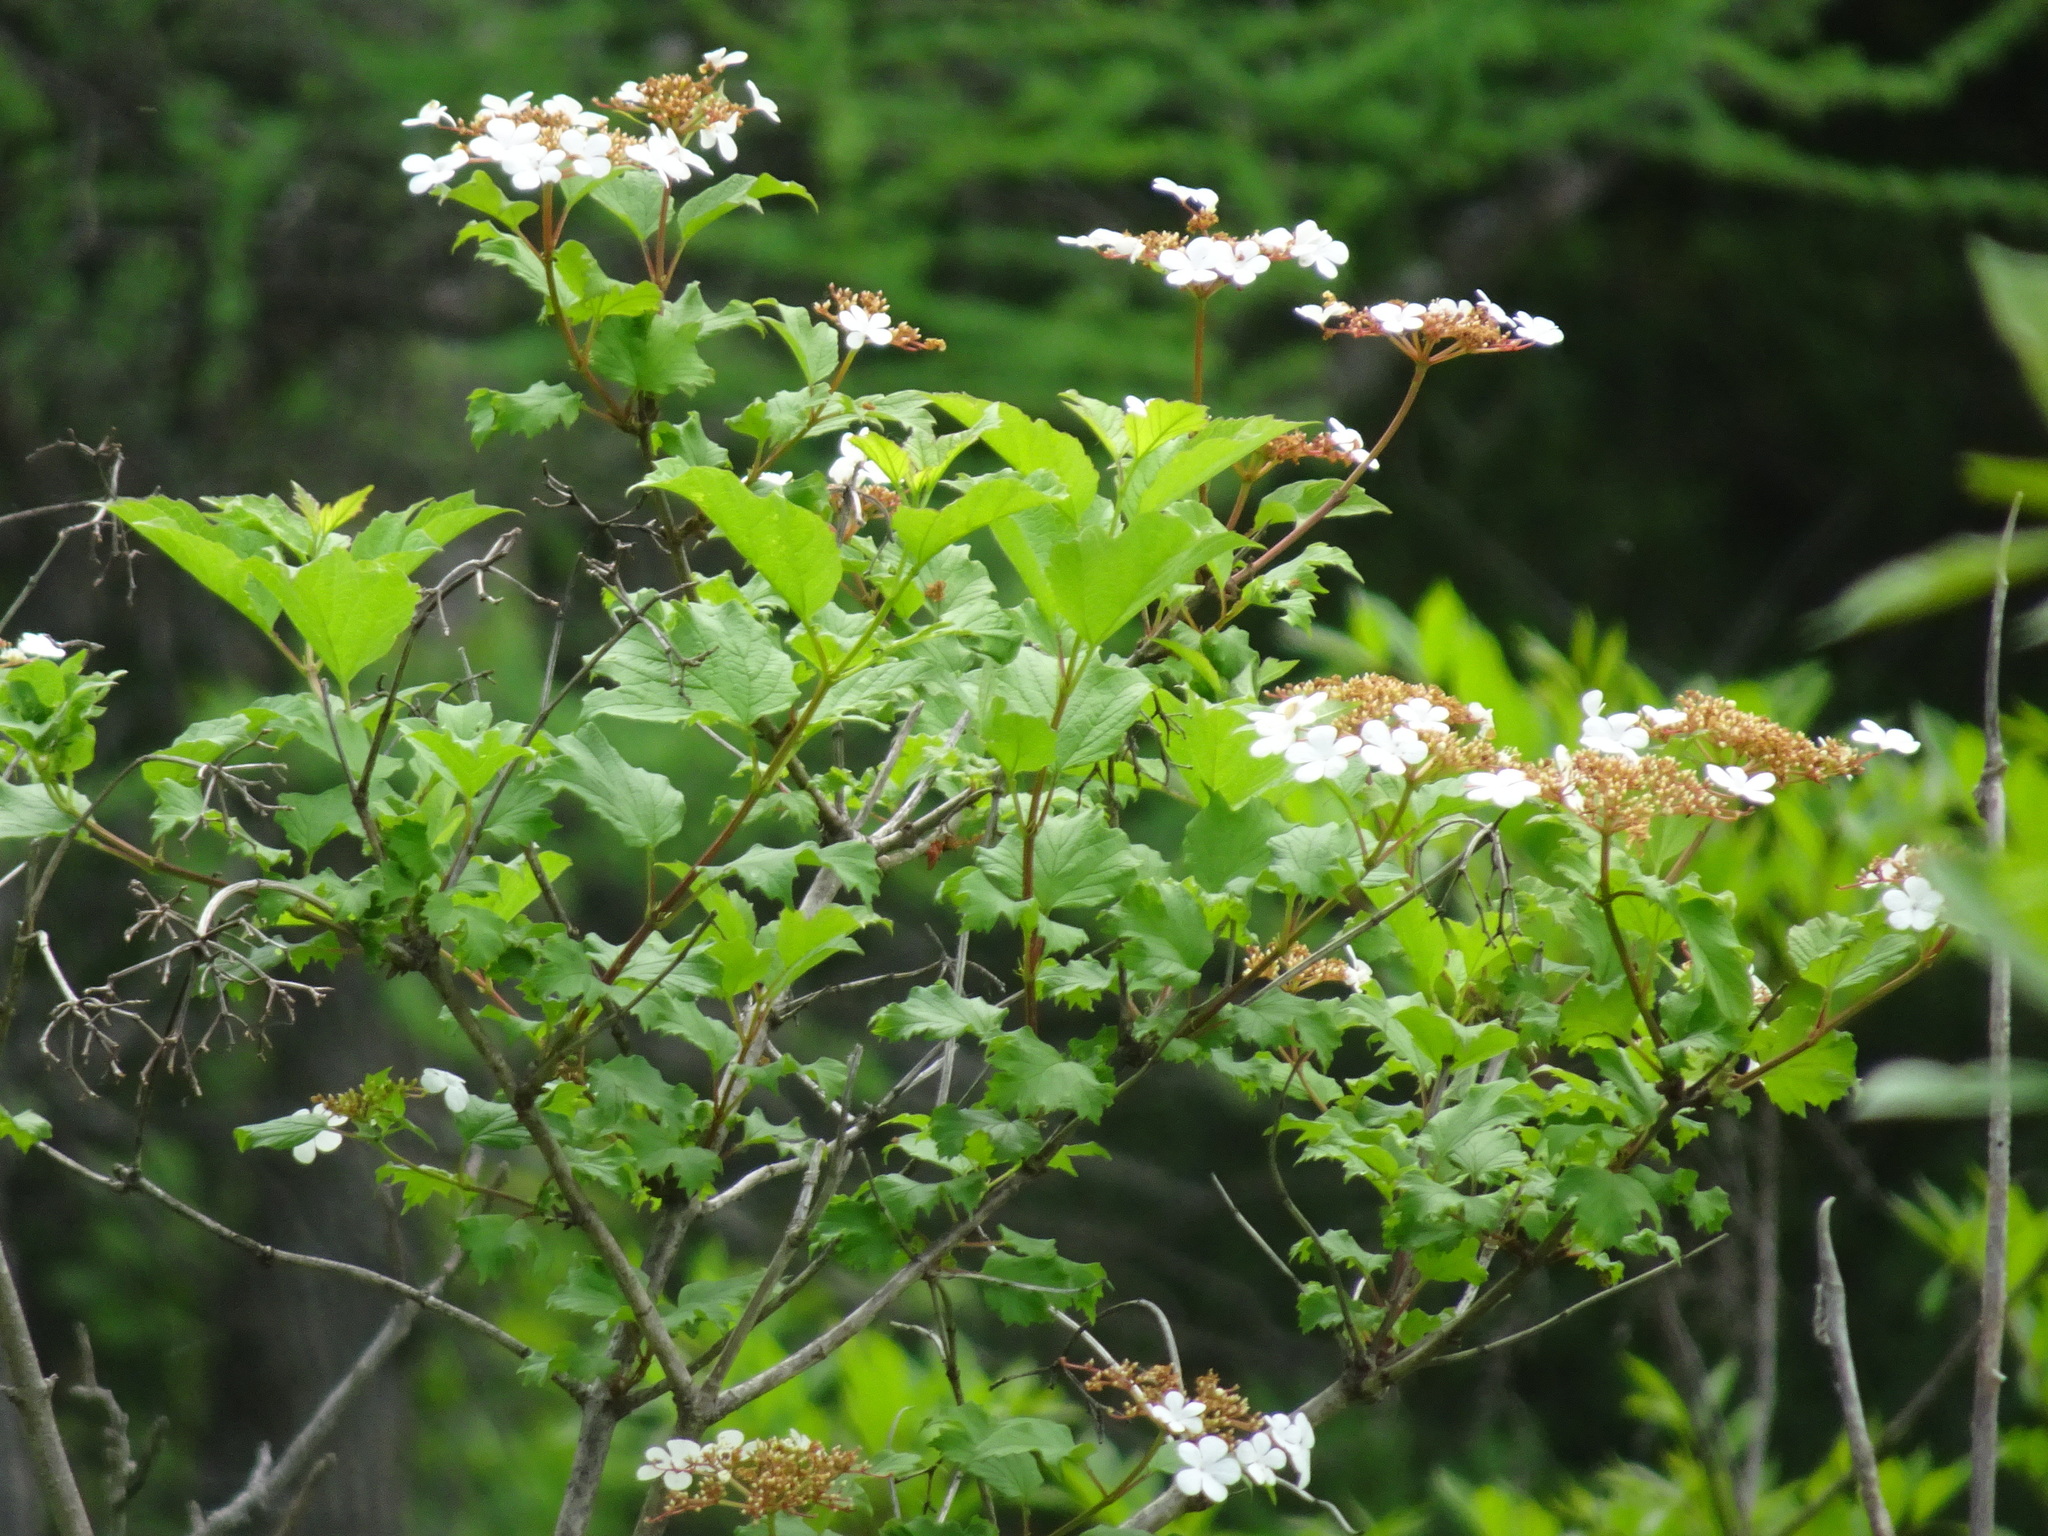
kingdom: Plantae
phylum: Tracheophyta
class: Magnoliopsida
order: Dipsacales
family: Viburnaceae
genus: Viburnum
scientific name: Viburnum opulus
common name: Guelder-rose
